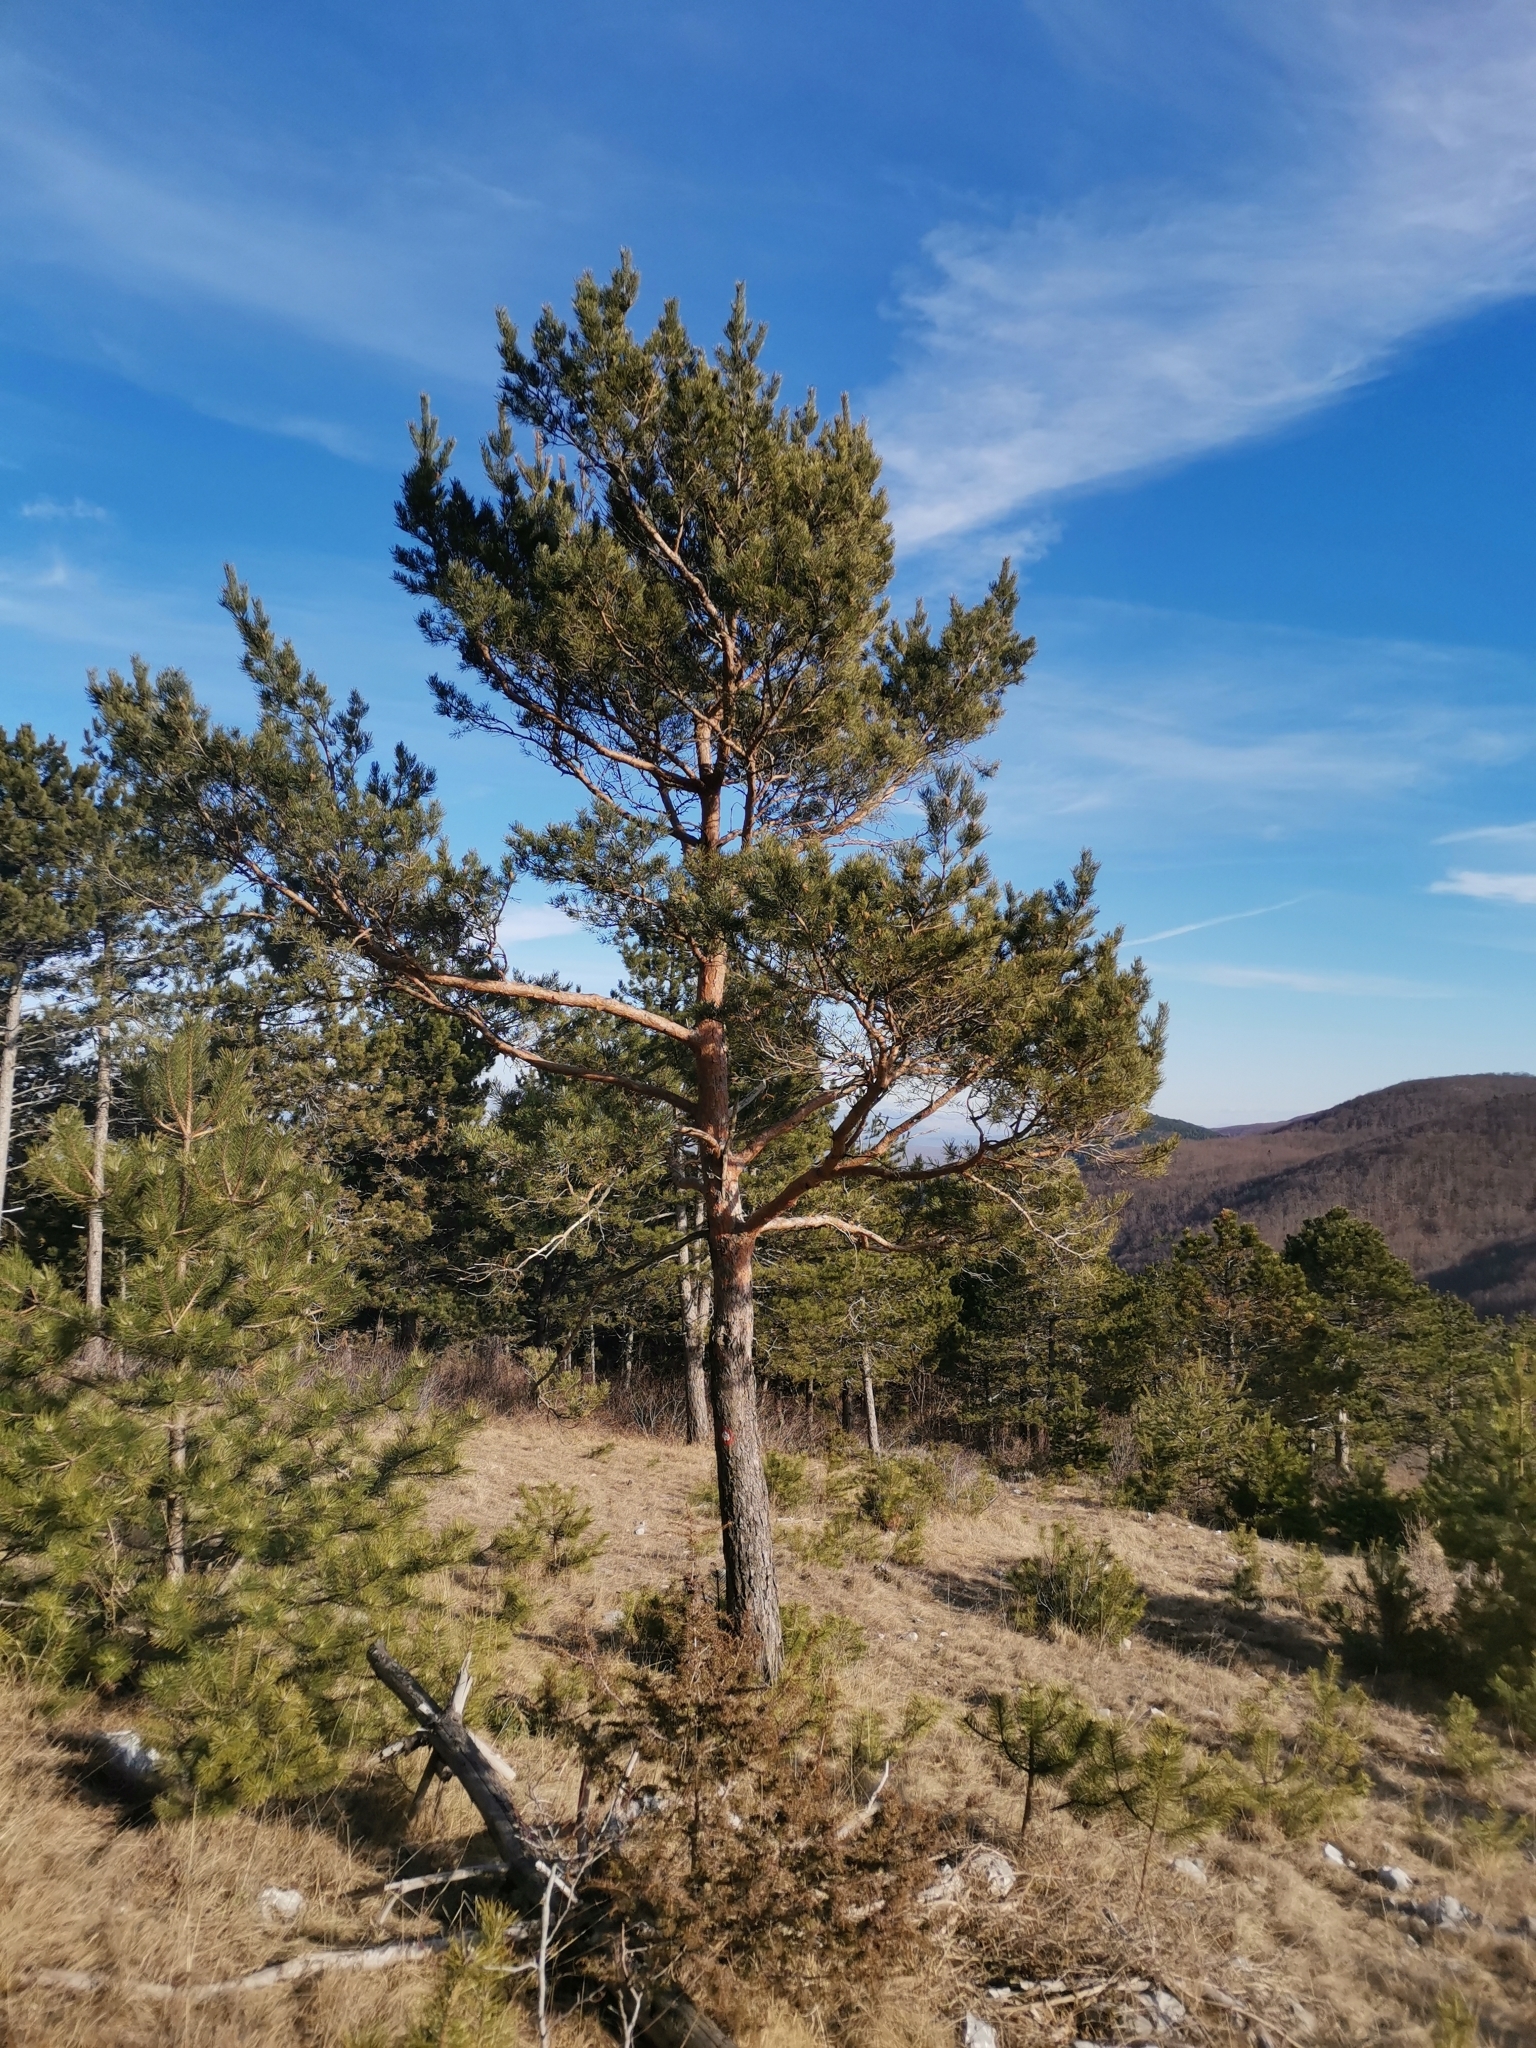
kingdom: Plantae
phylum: Tracheophyta
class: Pinopsida
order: Pinales
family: Pinaceae
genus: Pinus
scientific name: Pinus sylvestris
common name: Scots pine
